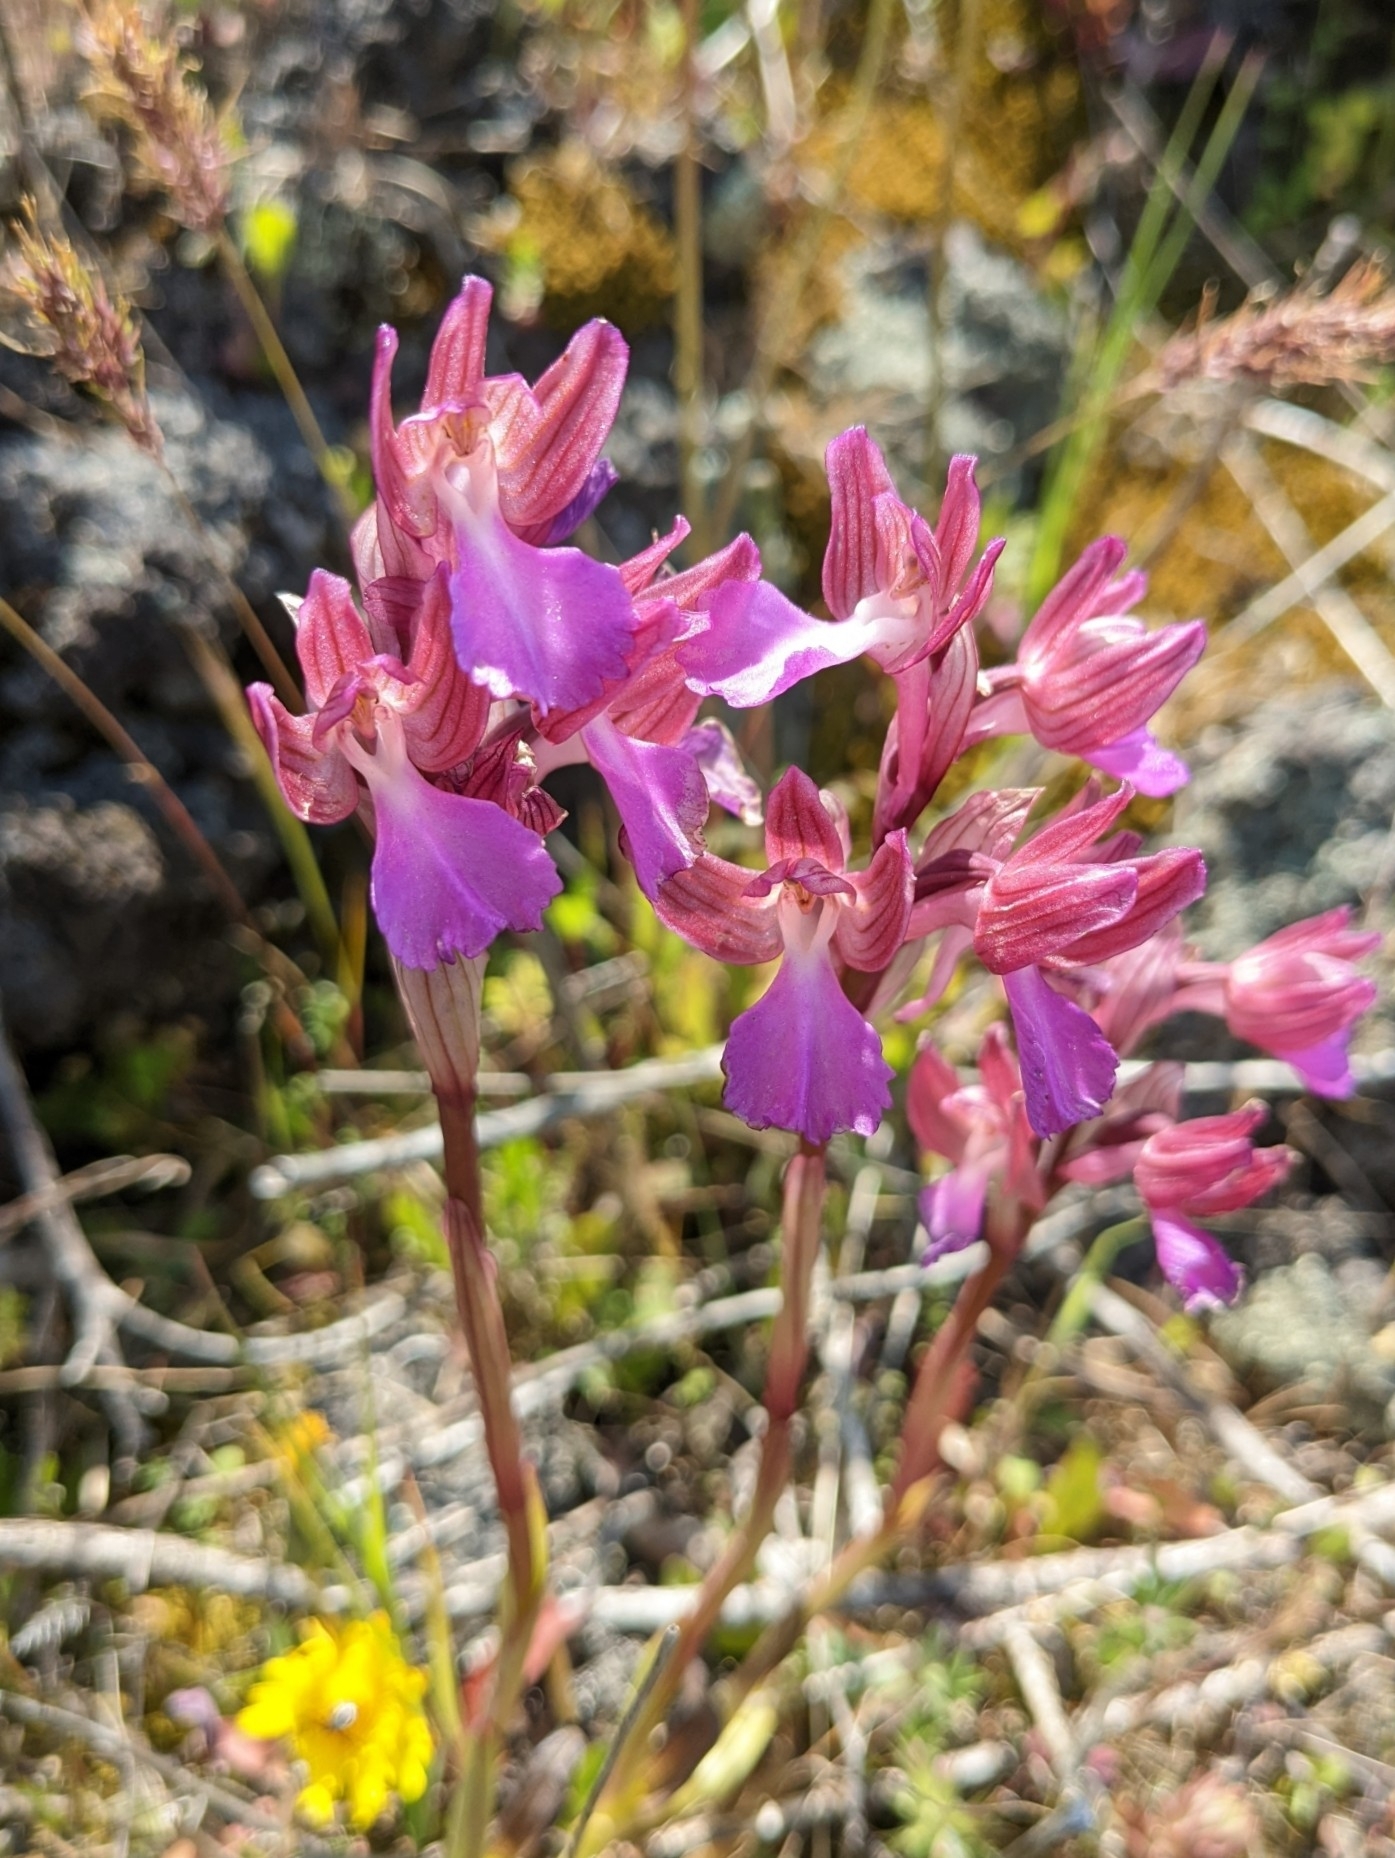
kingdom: Plantae
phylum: Tracheophyta
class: Liliopsida
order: Asparagales
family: Orchidaceae
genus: Anacamptis
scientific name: Anacamptis papilionacea
